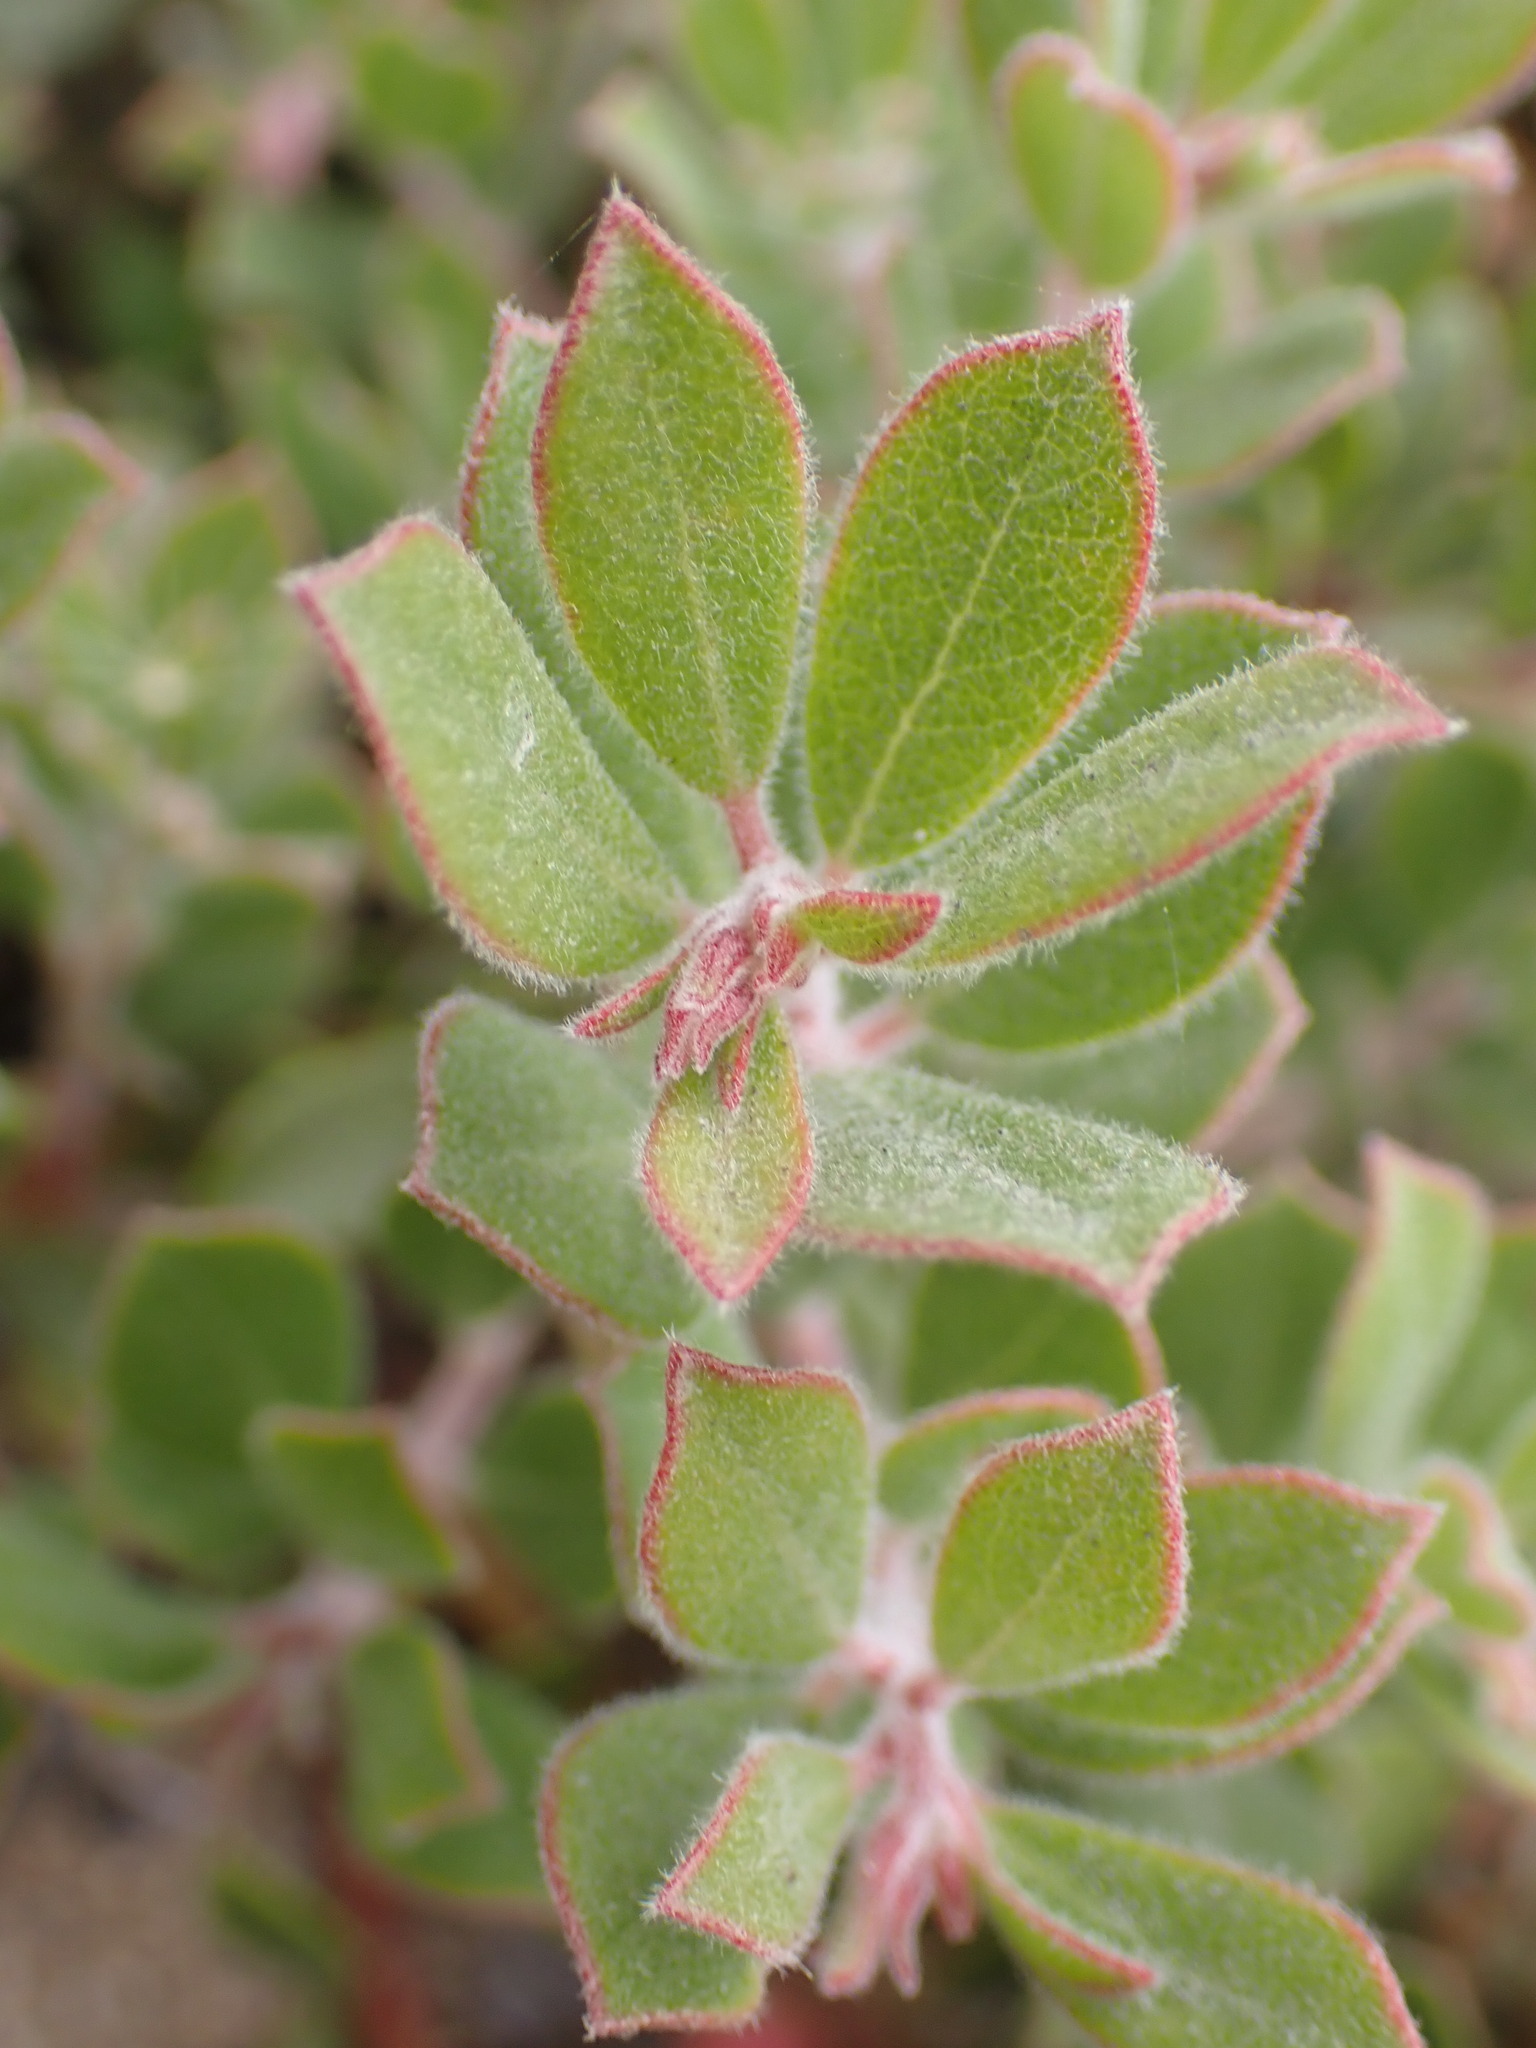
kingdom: Plantae
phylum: Tracheophyta
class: Magnoliopsida
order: Ericales
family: Ericaceae
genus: Arctostaphylos
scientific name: Arctostaphylos pumila
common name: Sandmat manzanita
